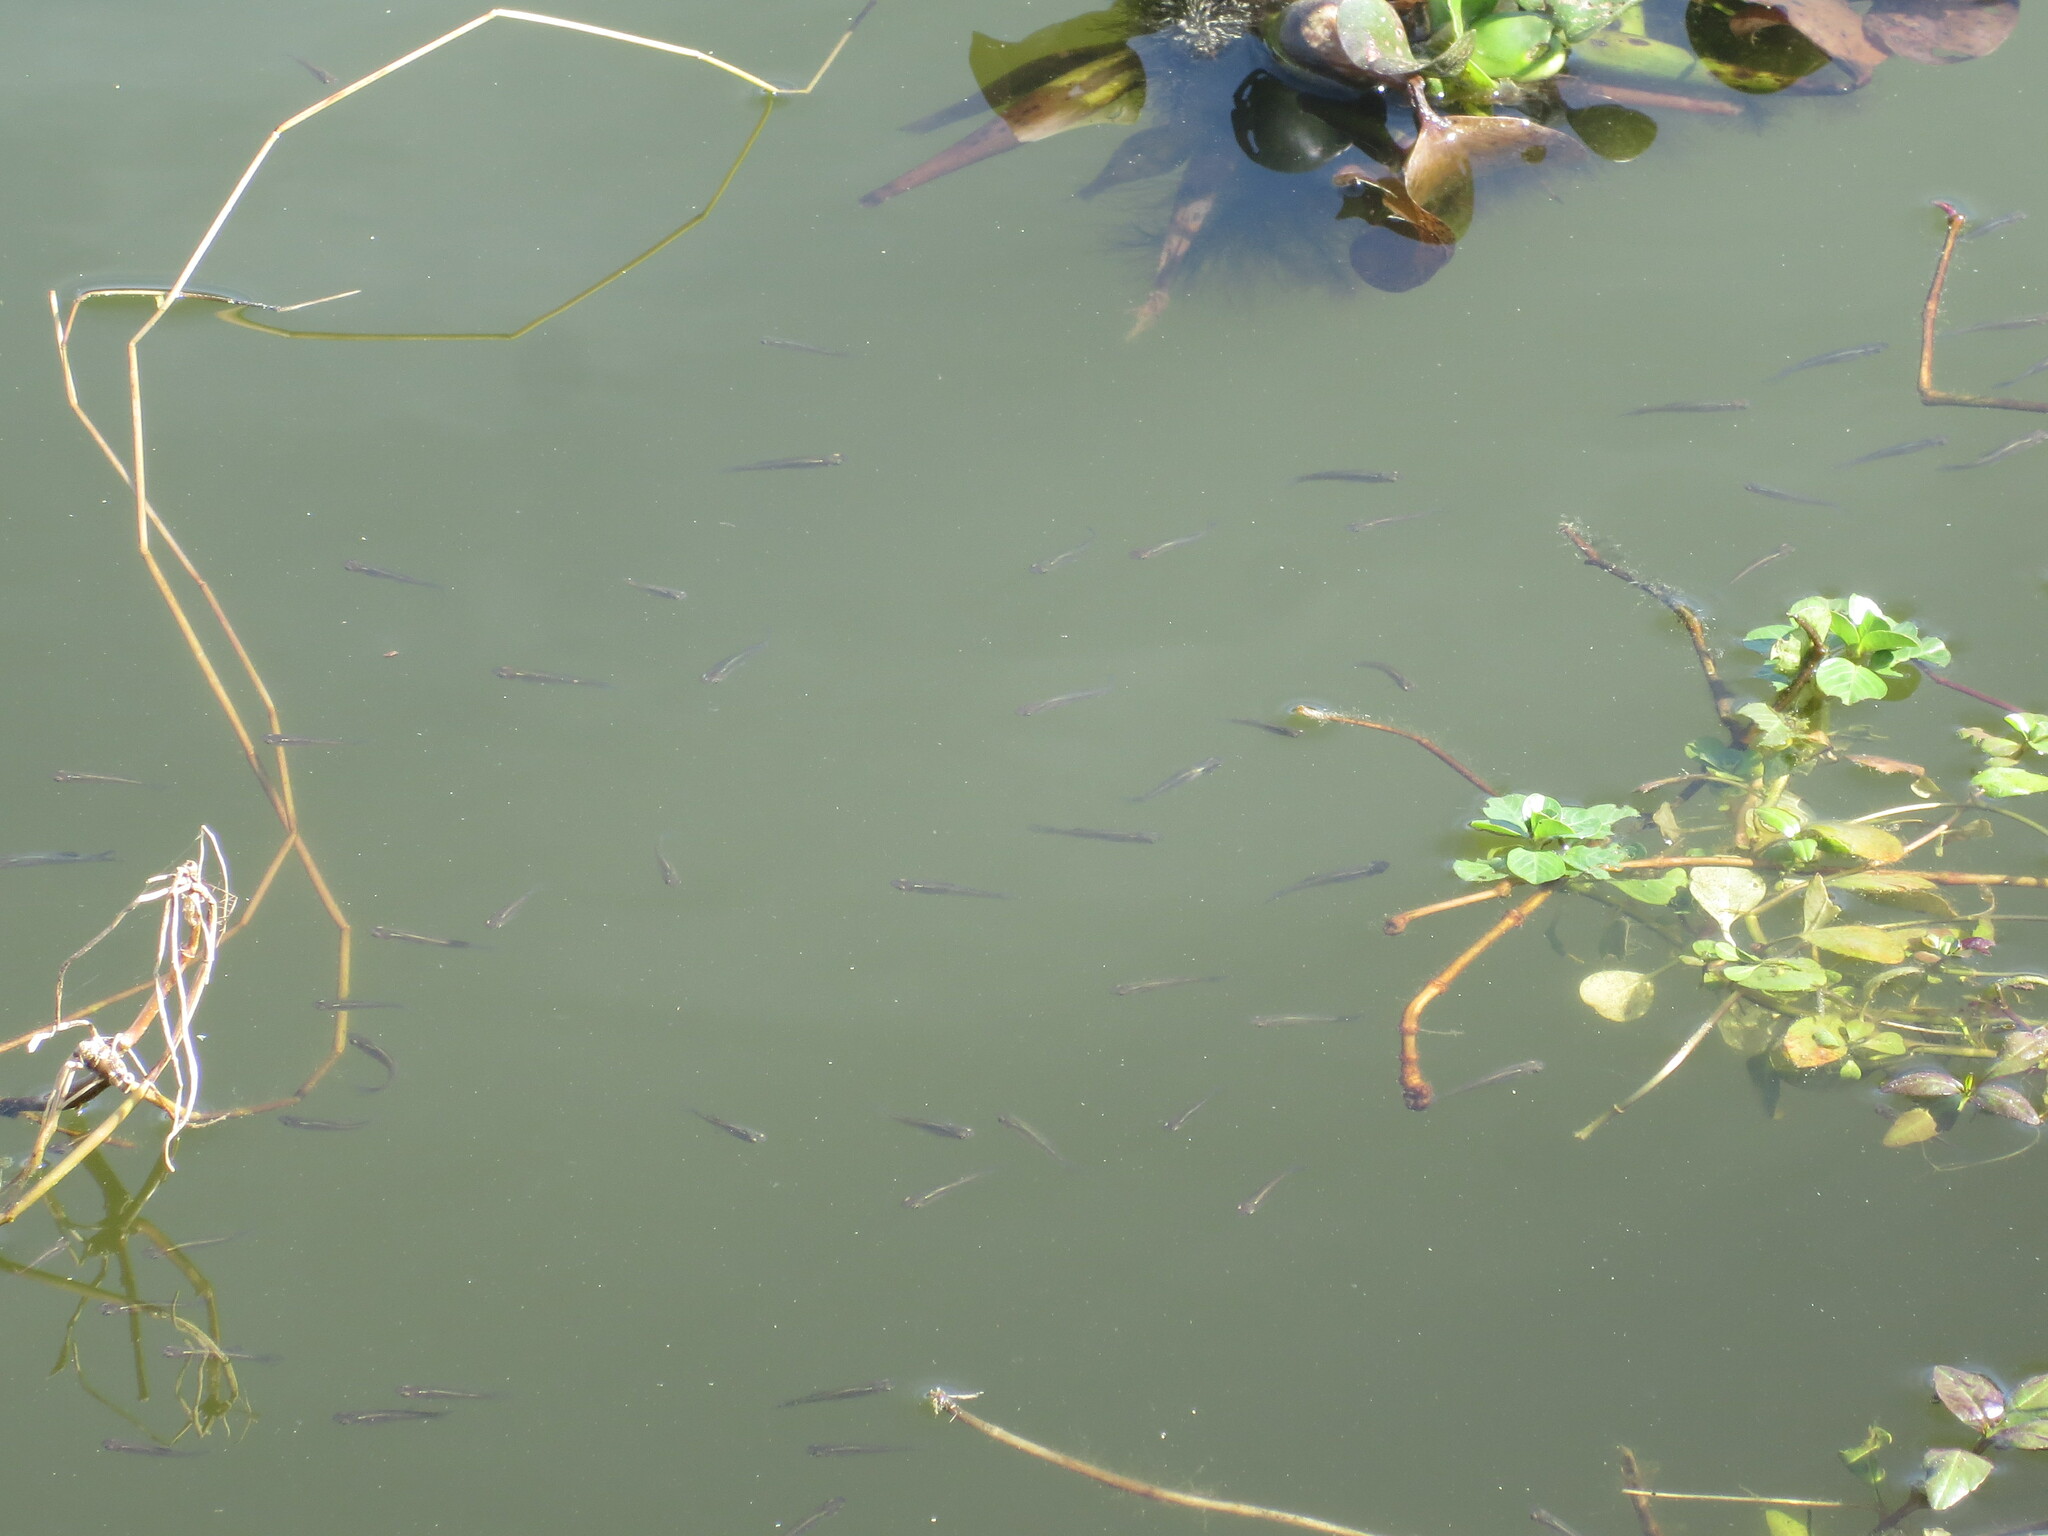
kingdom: Animalia
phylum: Chordata
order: Cyprinodontiformes
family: Poeciliidae
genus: Gambusia
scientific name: Gambusia holbrooki
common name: Eastern mosquitofish
